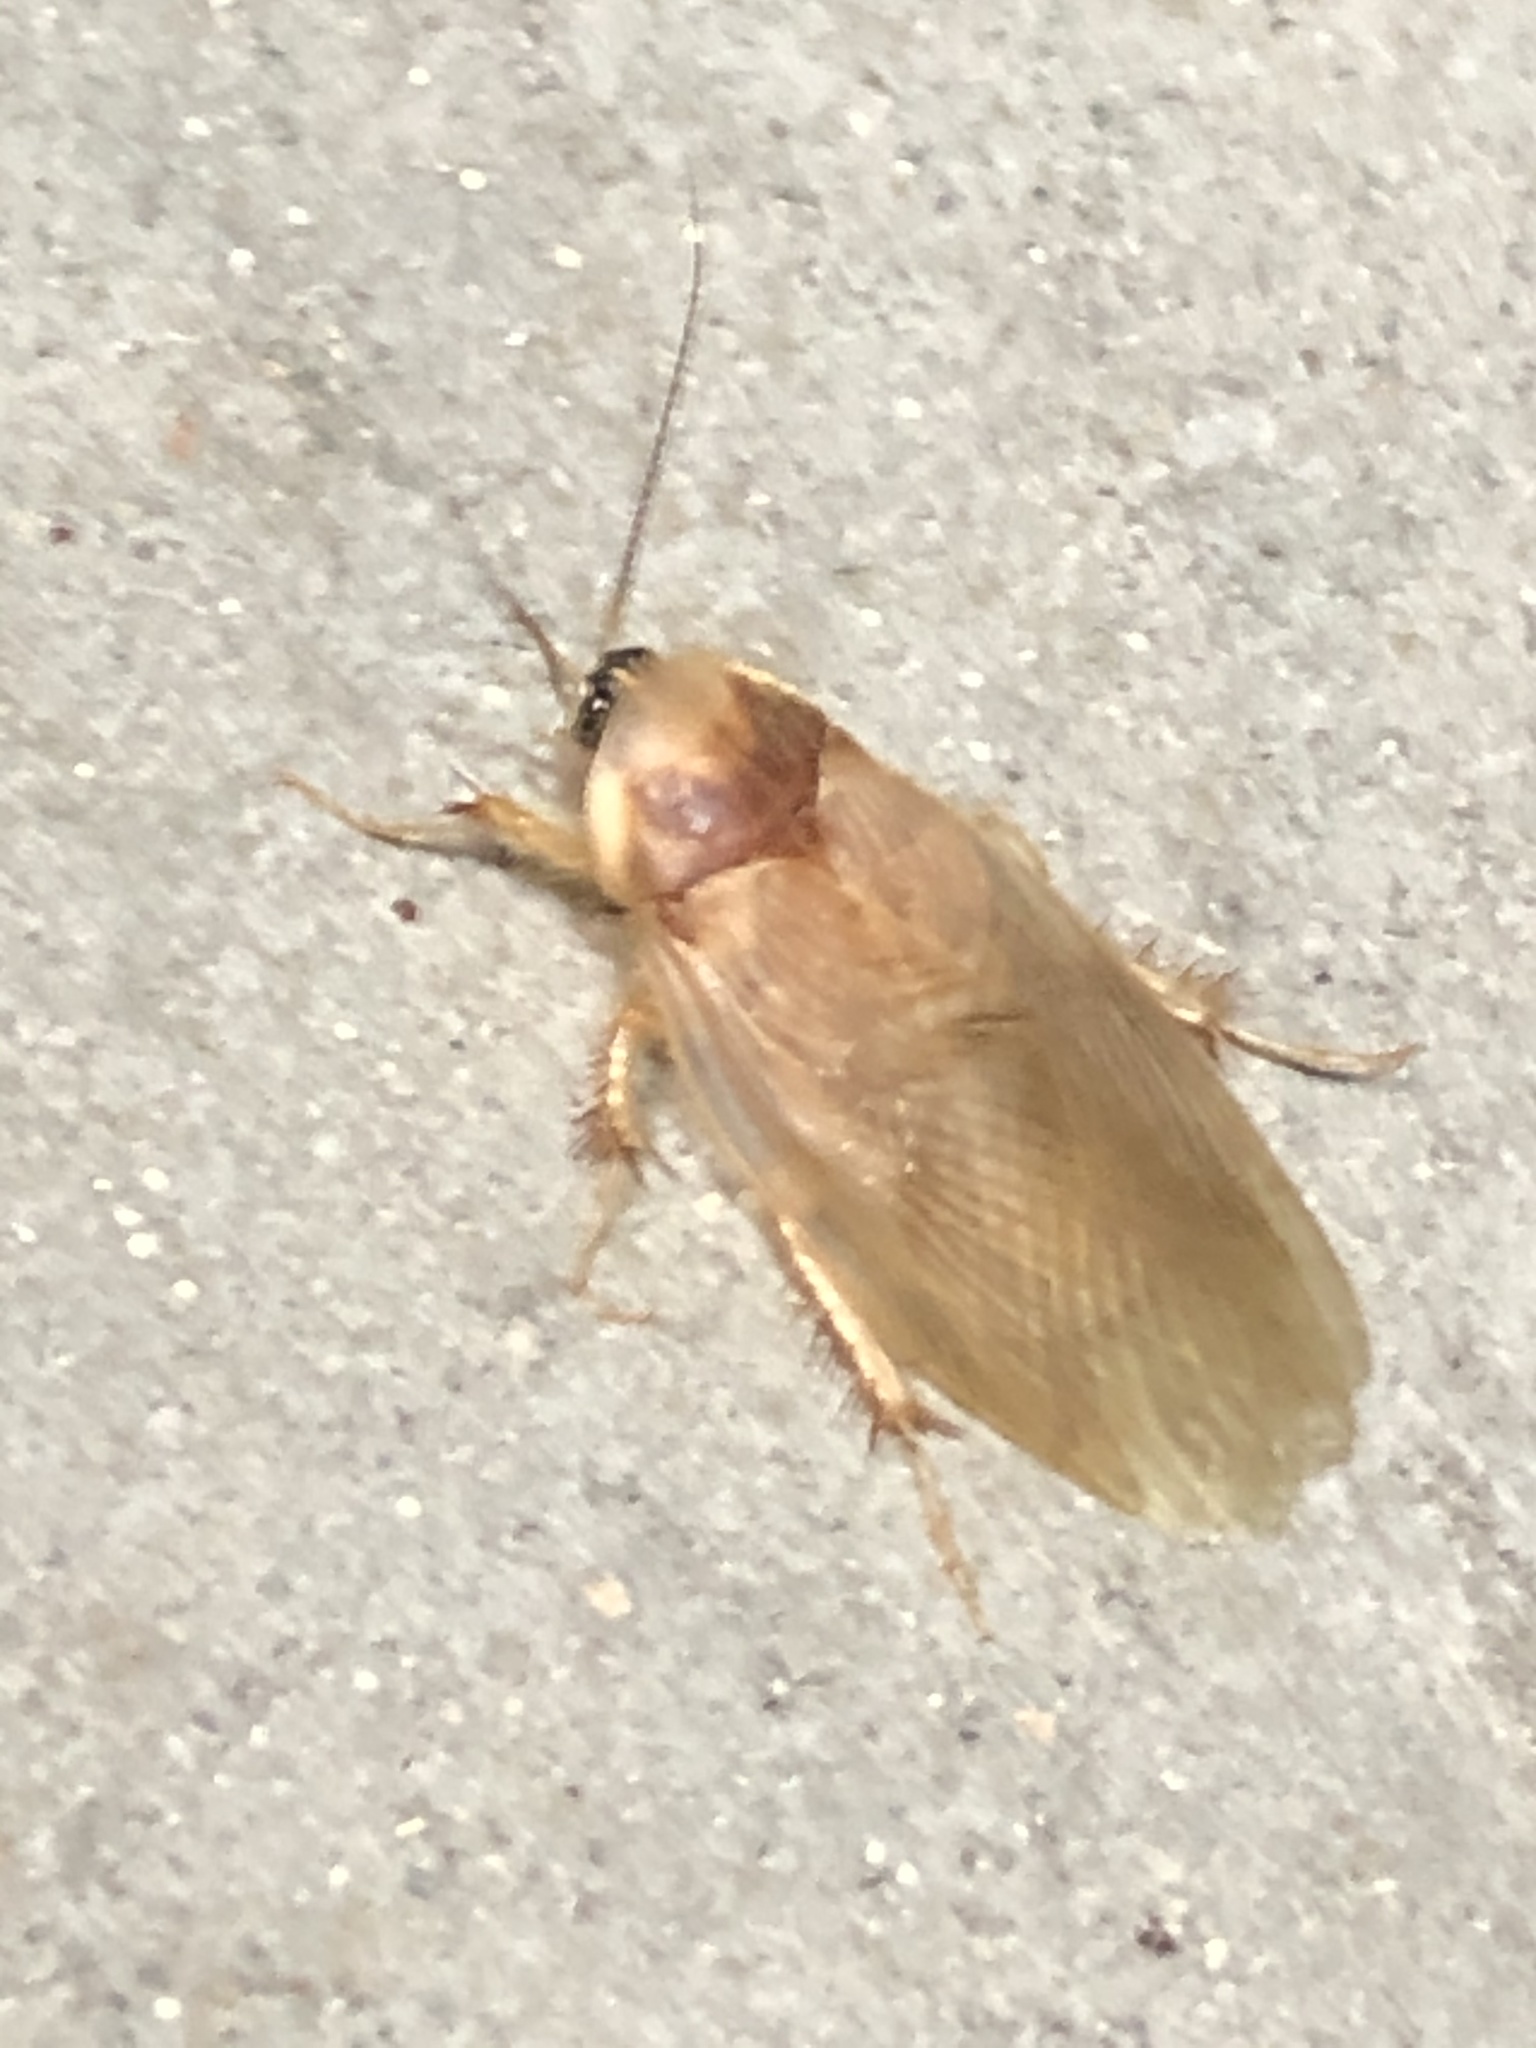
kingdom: Animalia
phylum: Arthropoda
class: Insecta
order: Blattodea
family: Corydiidae
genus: Eremoblatta
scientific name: Eremoblatta subdiaphana
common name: Hairy desert cockroach
